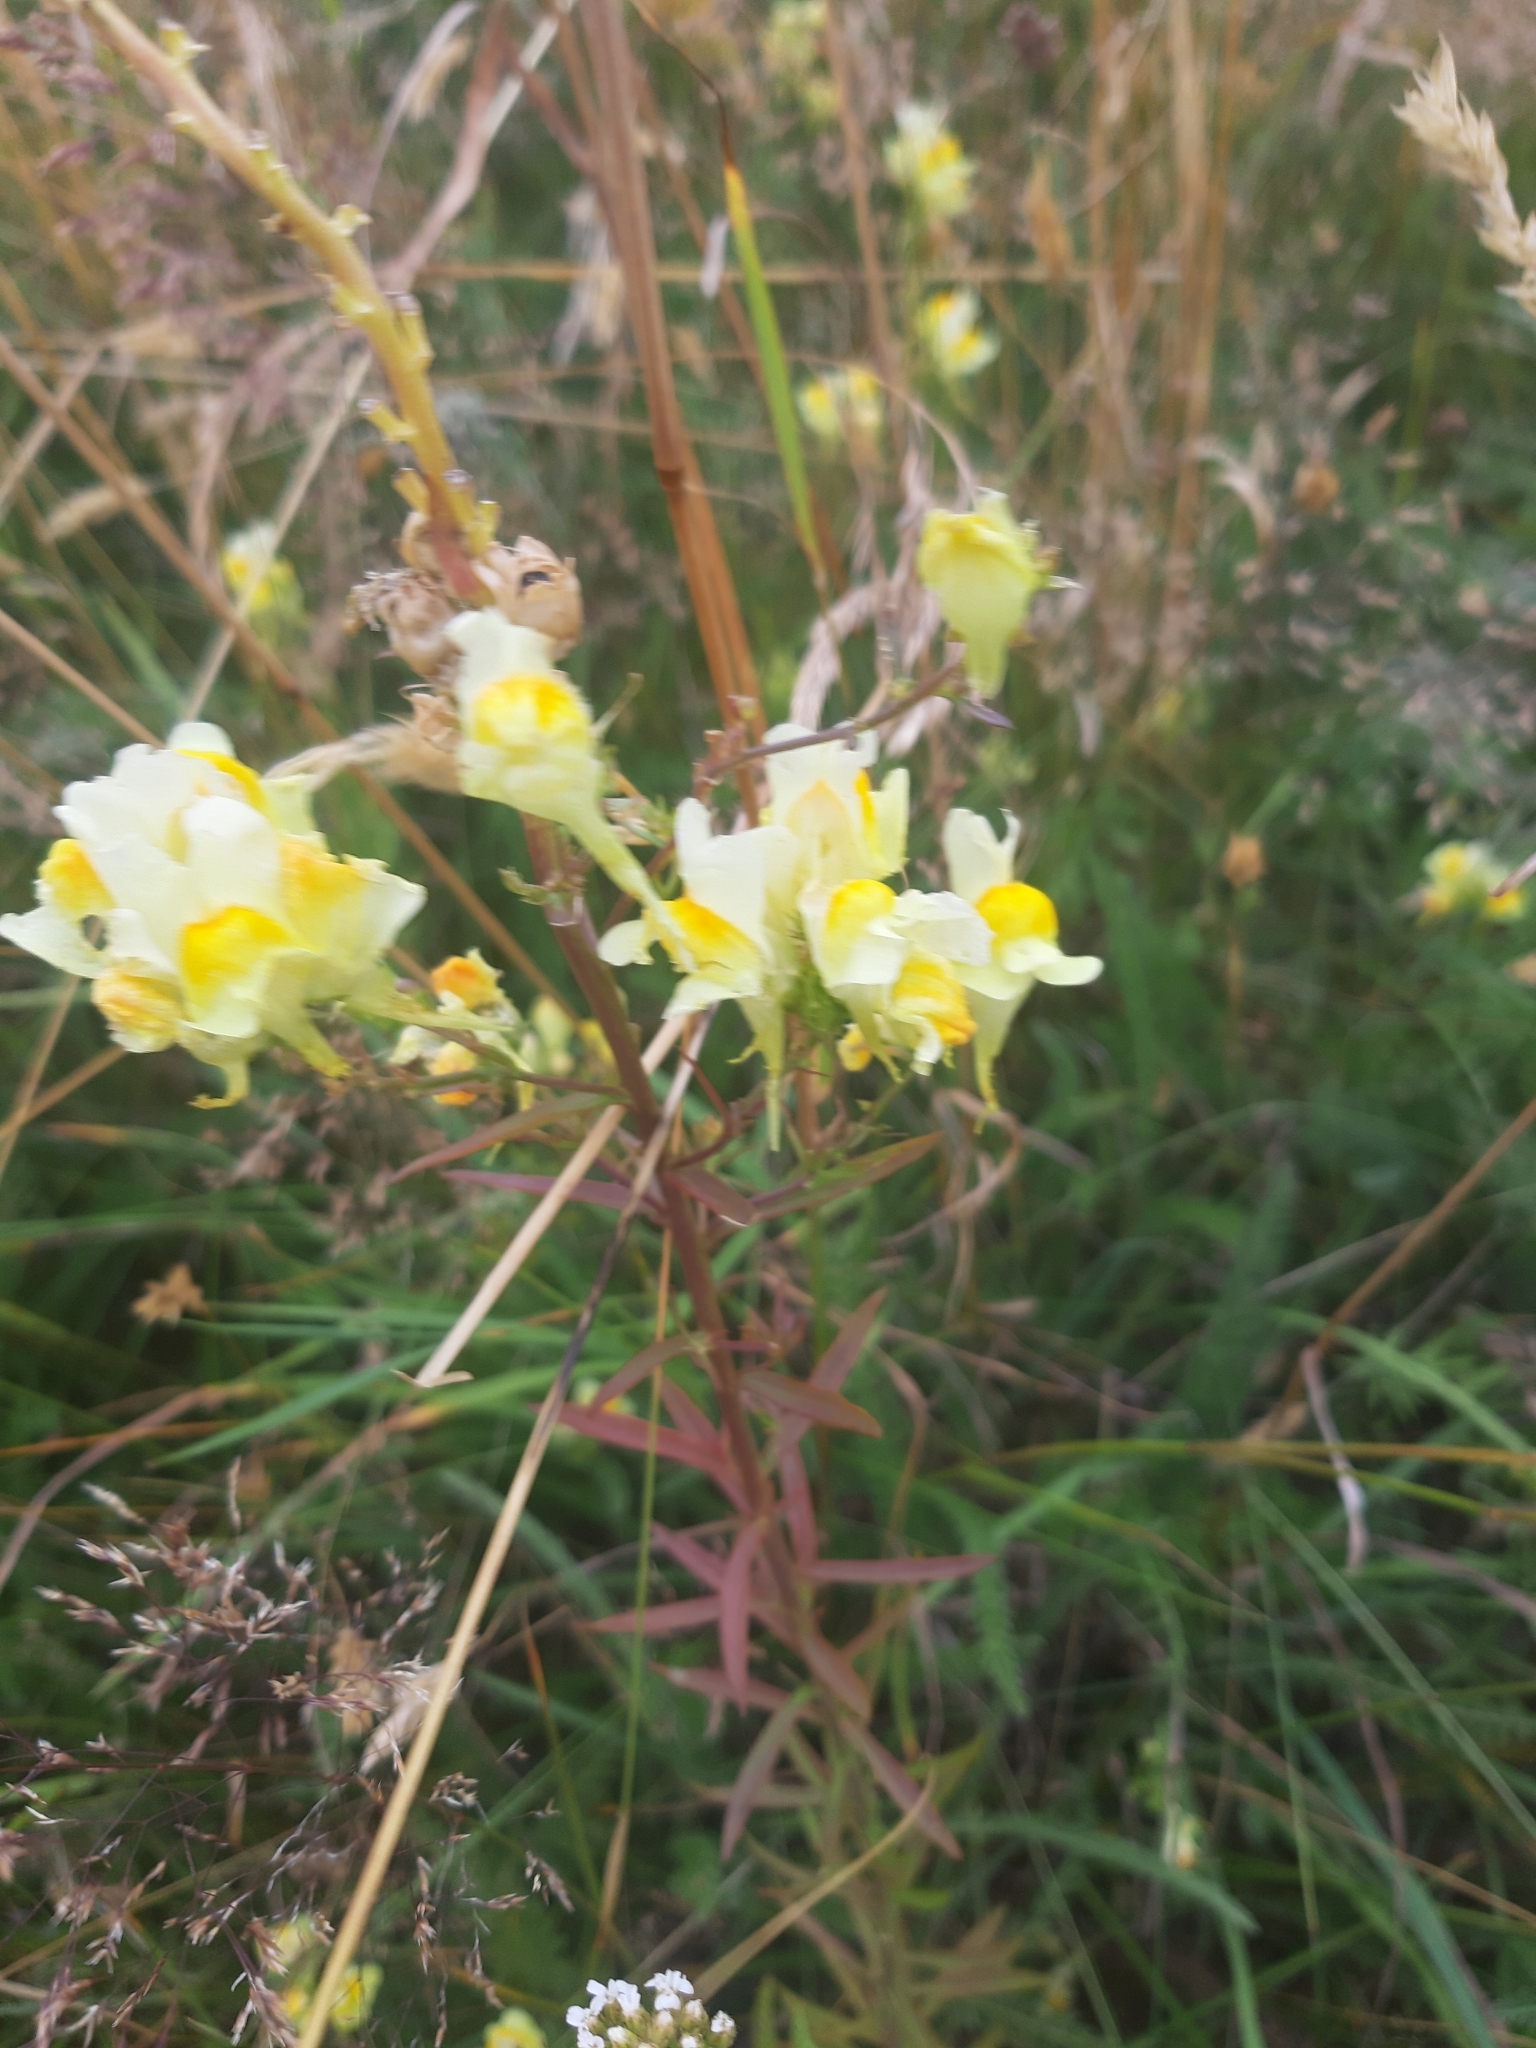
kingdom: Plantae
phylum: Tracheophyta
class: Magnoliopsida
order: Lamiales
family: Plantaginaceae
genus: Linaria
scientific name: Linaria vulgaris
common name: Butter and eggs
